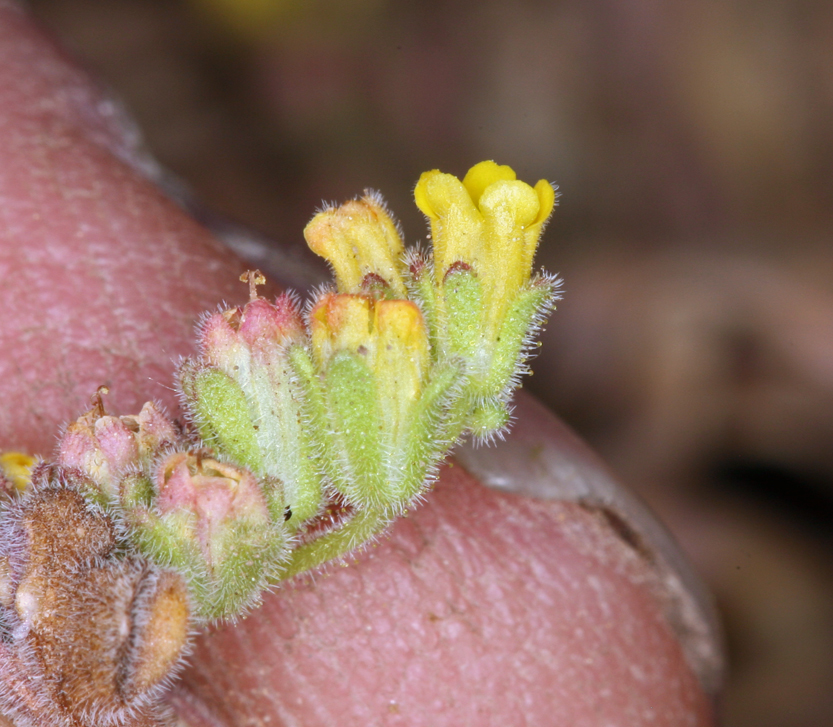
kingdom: Plantae
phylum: Tracheophyta
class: Magnoliopsida
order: Boraginales
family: Hydrophyllaceae
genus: Phacelia
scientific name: Phacelia monoensis
